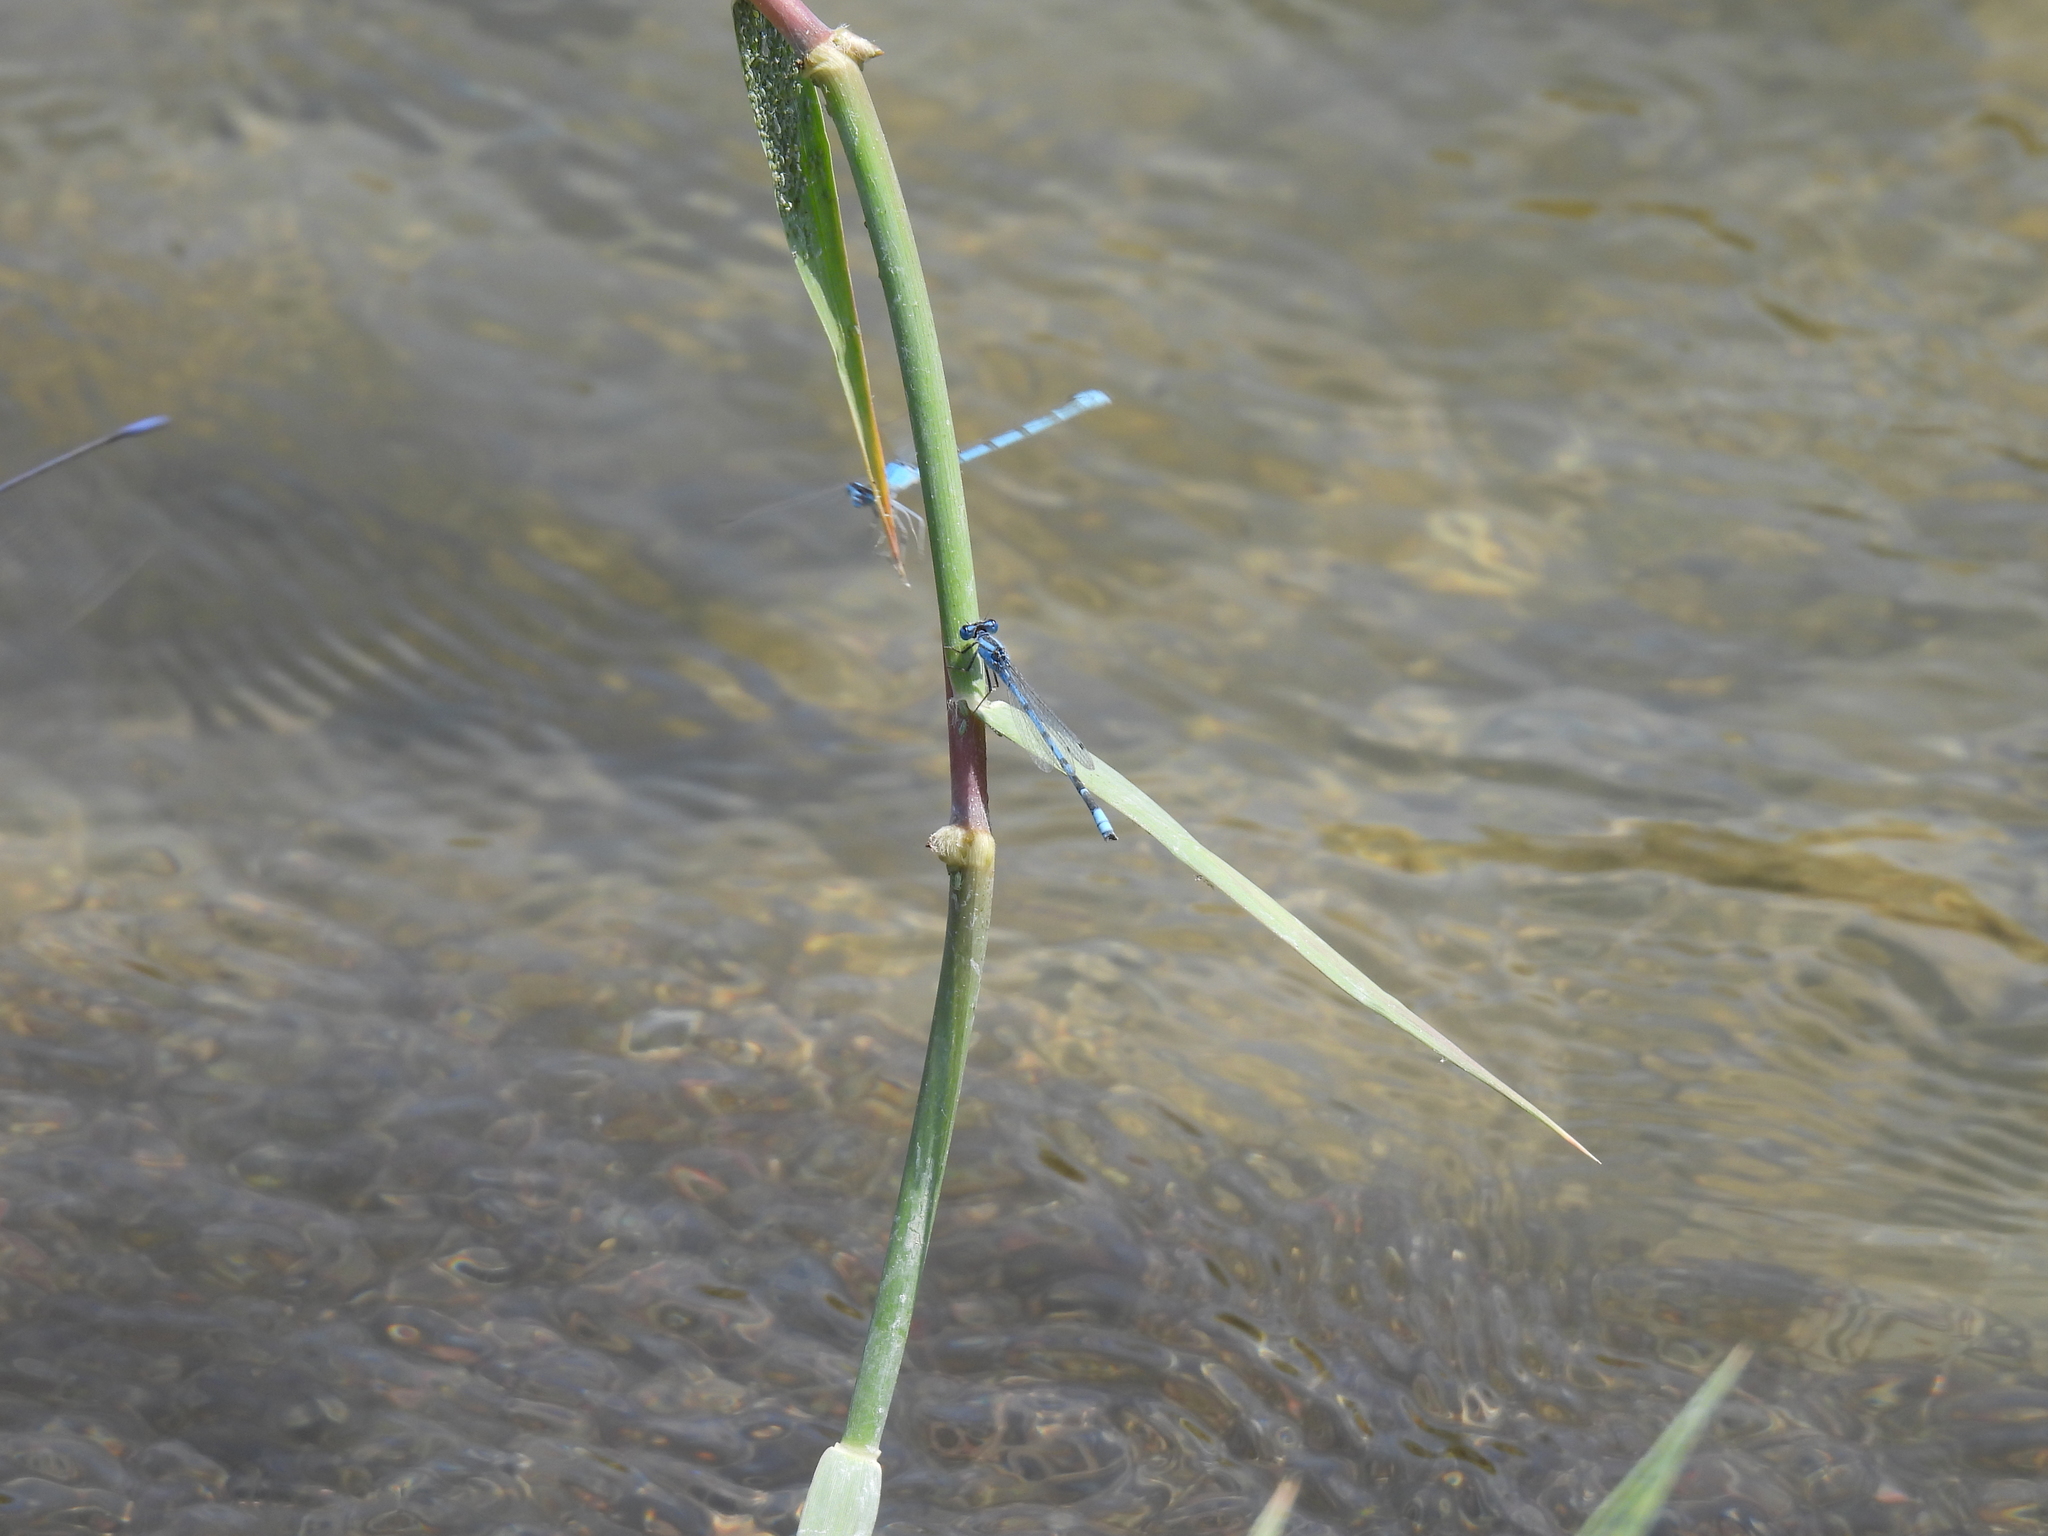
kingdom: Animalia
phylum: Arthropoda
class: Insecta
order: Odonata
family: Coenagrionidae
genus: Enallagma
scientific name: Enallagma civile
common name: Damselfly
